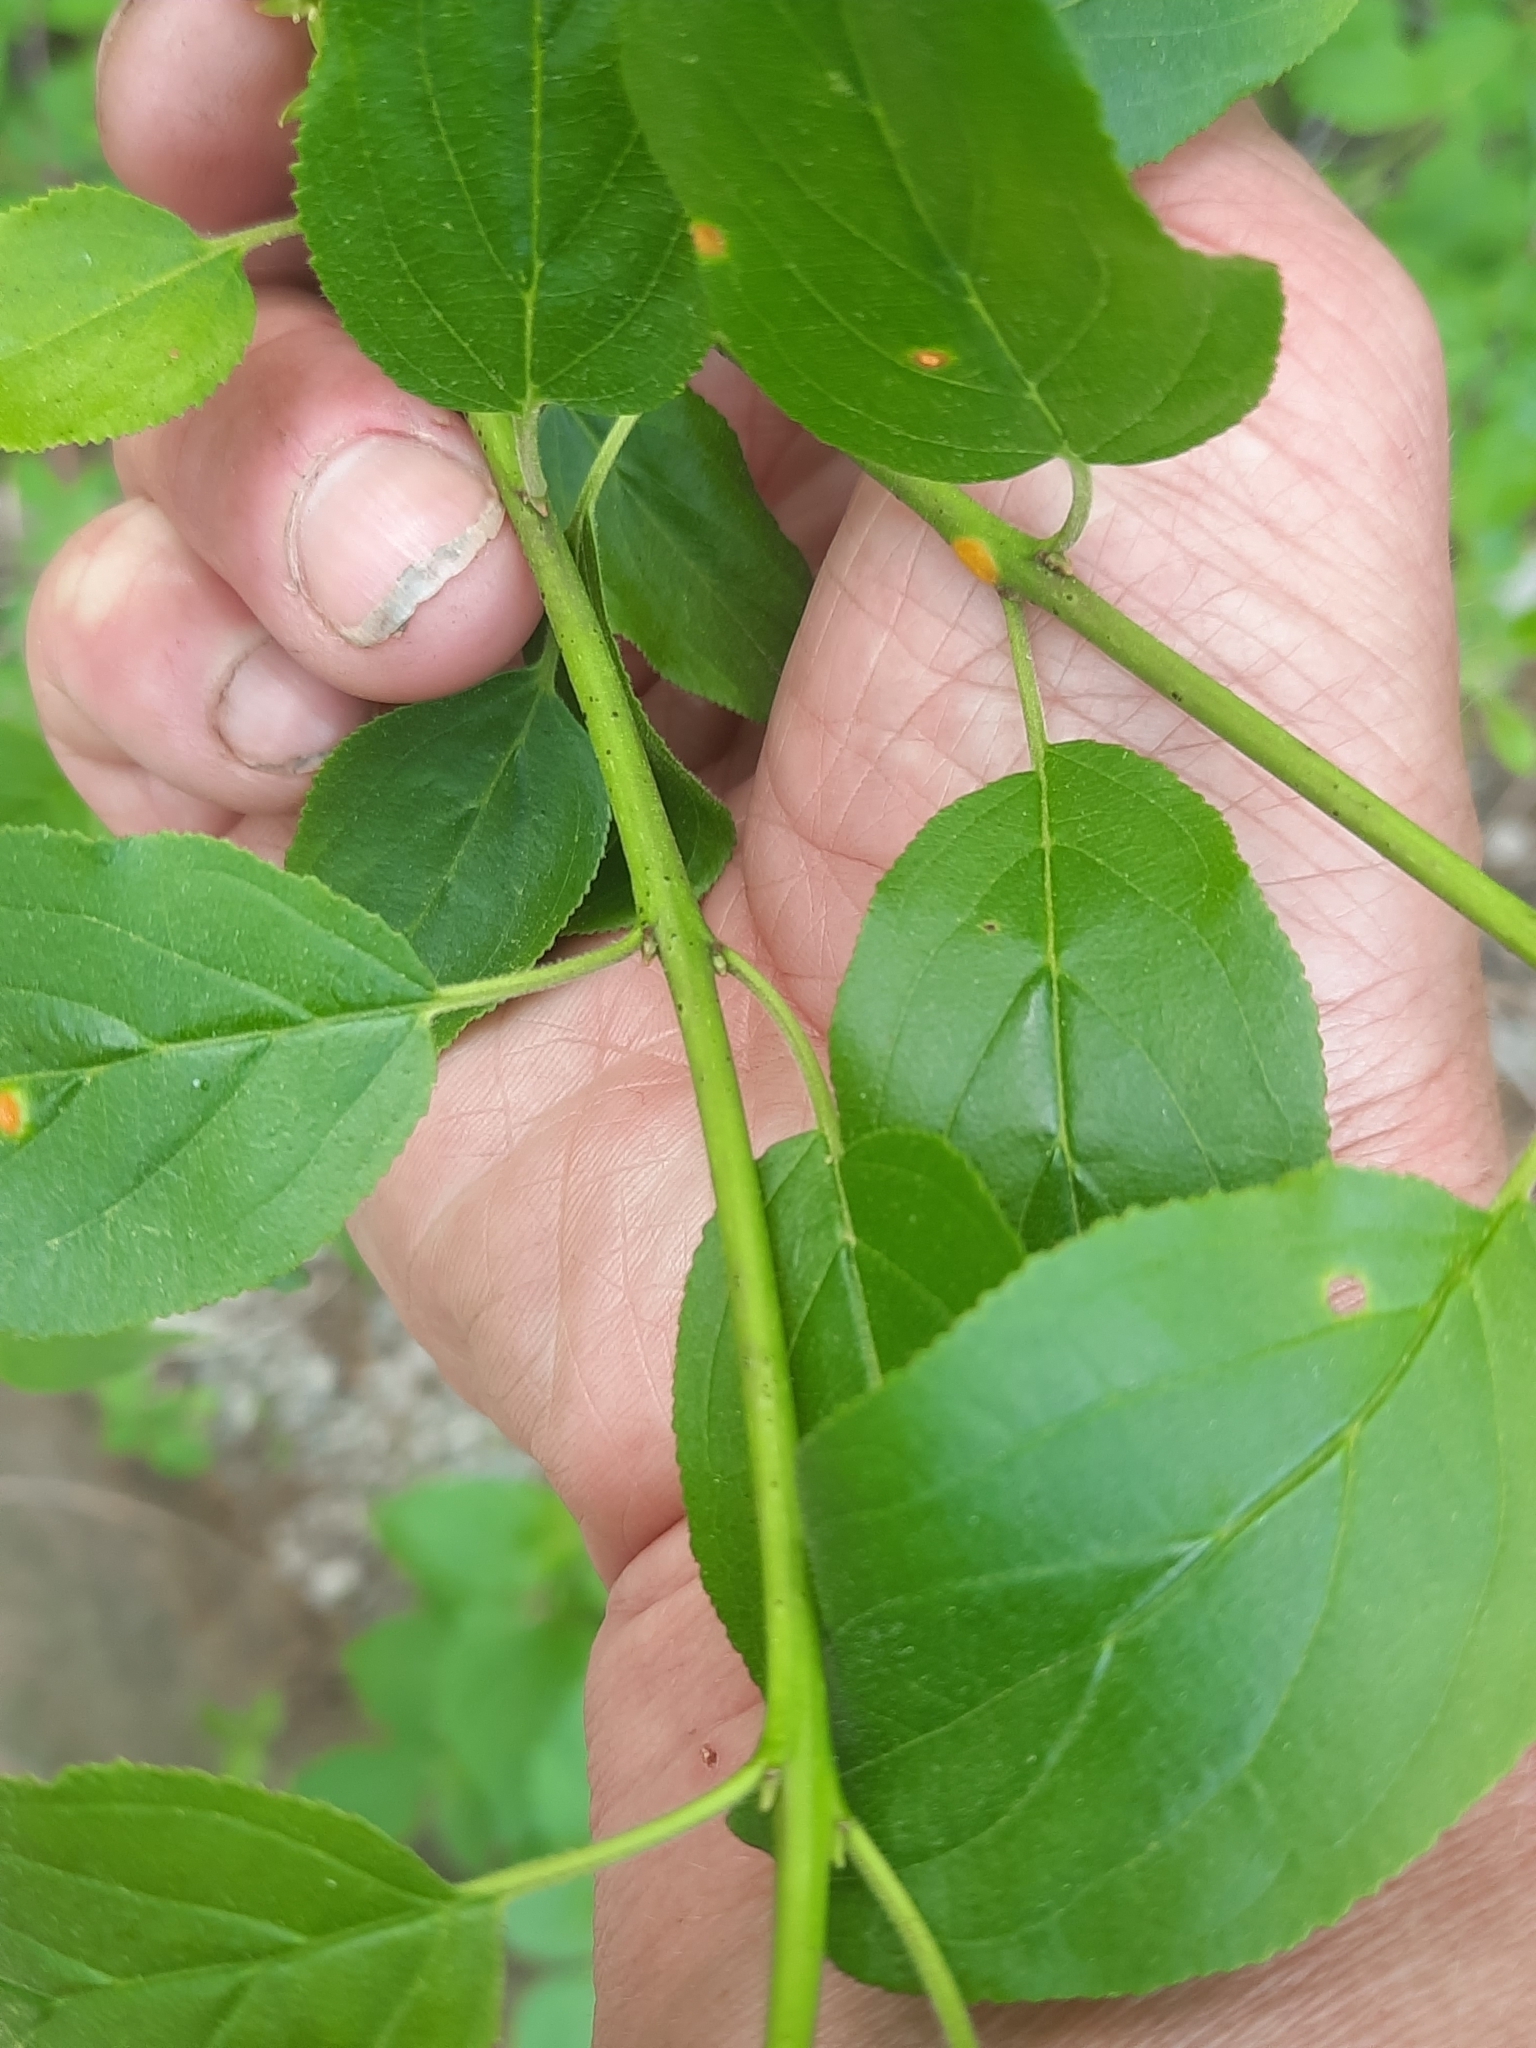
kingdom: Fungi
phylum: Basidiomycota
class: Pucciniomycetes
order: Pucciniales
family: Pucciniaceae
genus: Puccinia
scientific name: Puccinia coronata
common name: Crown rust
